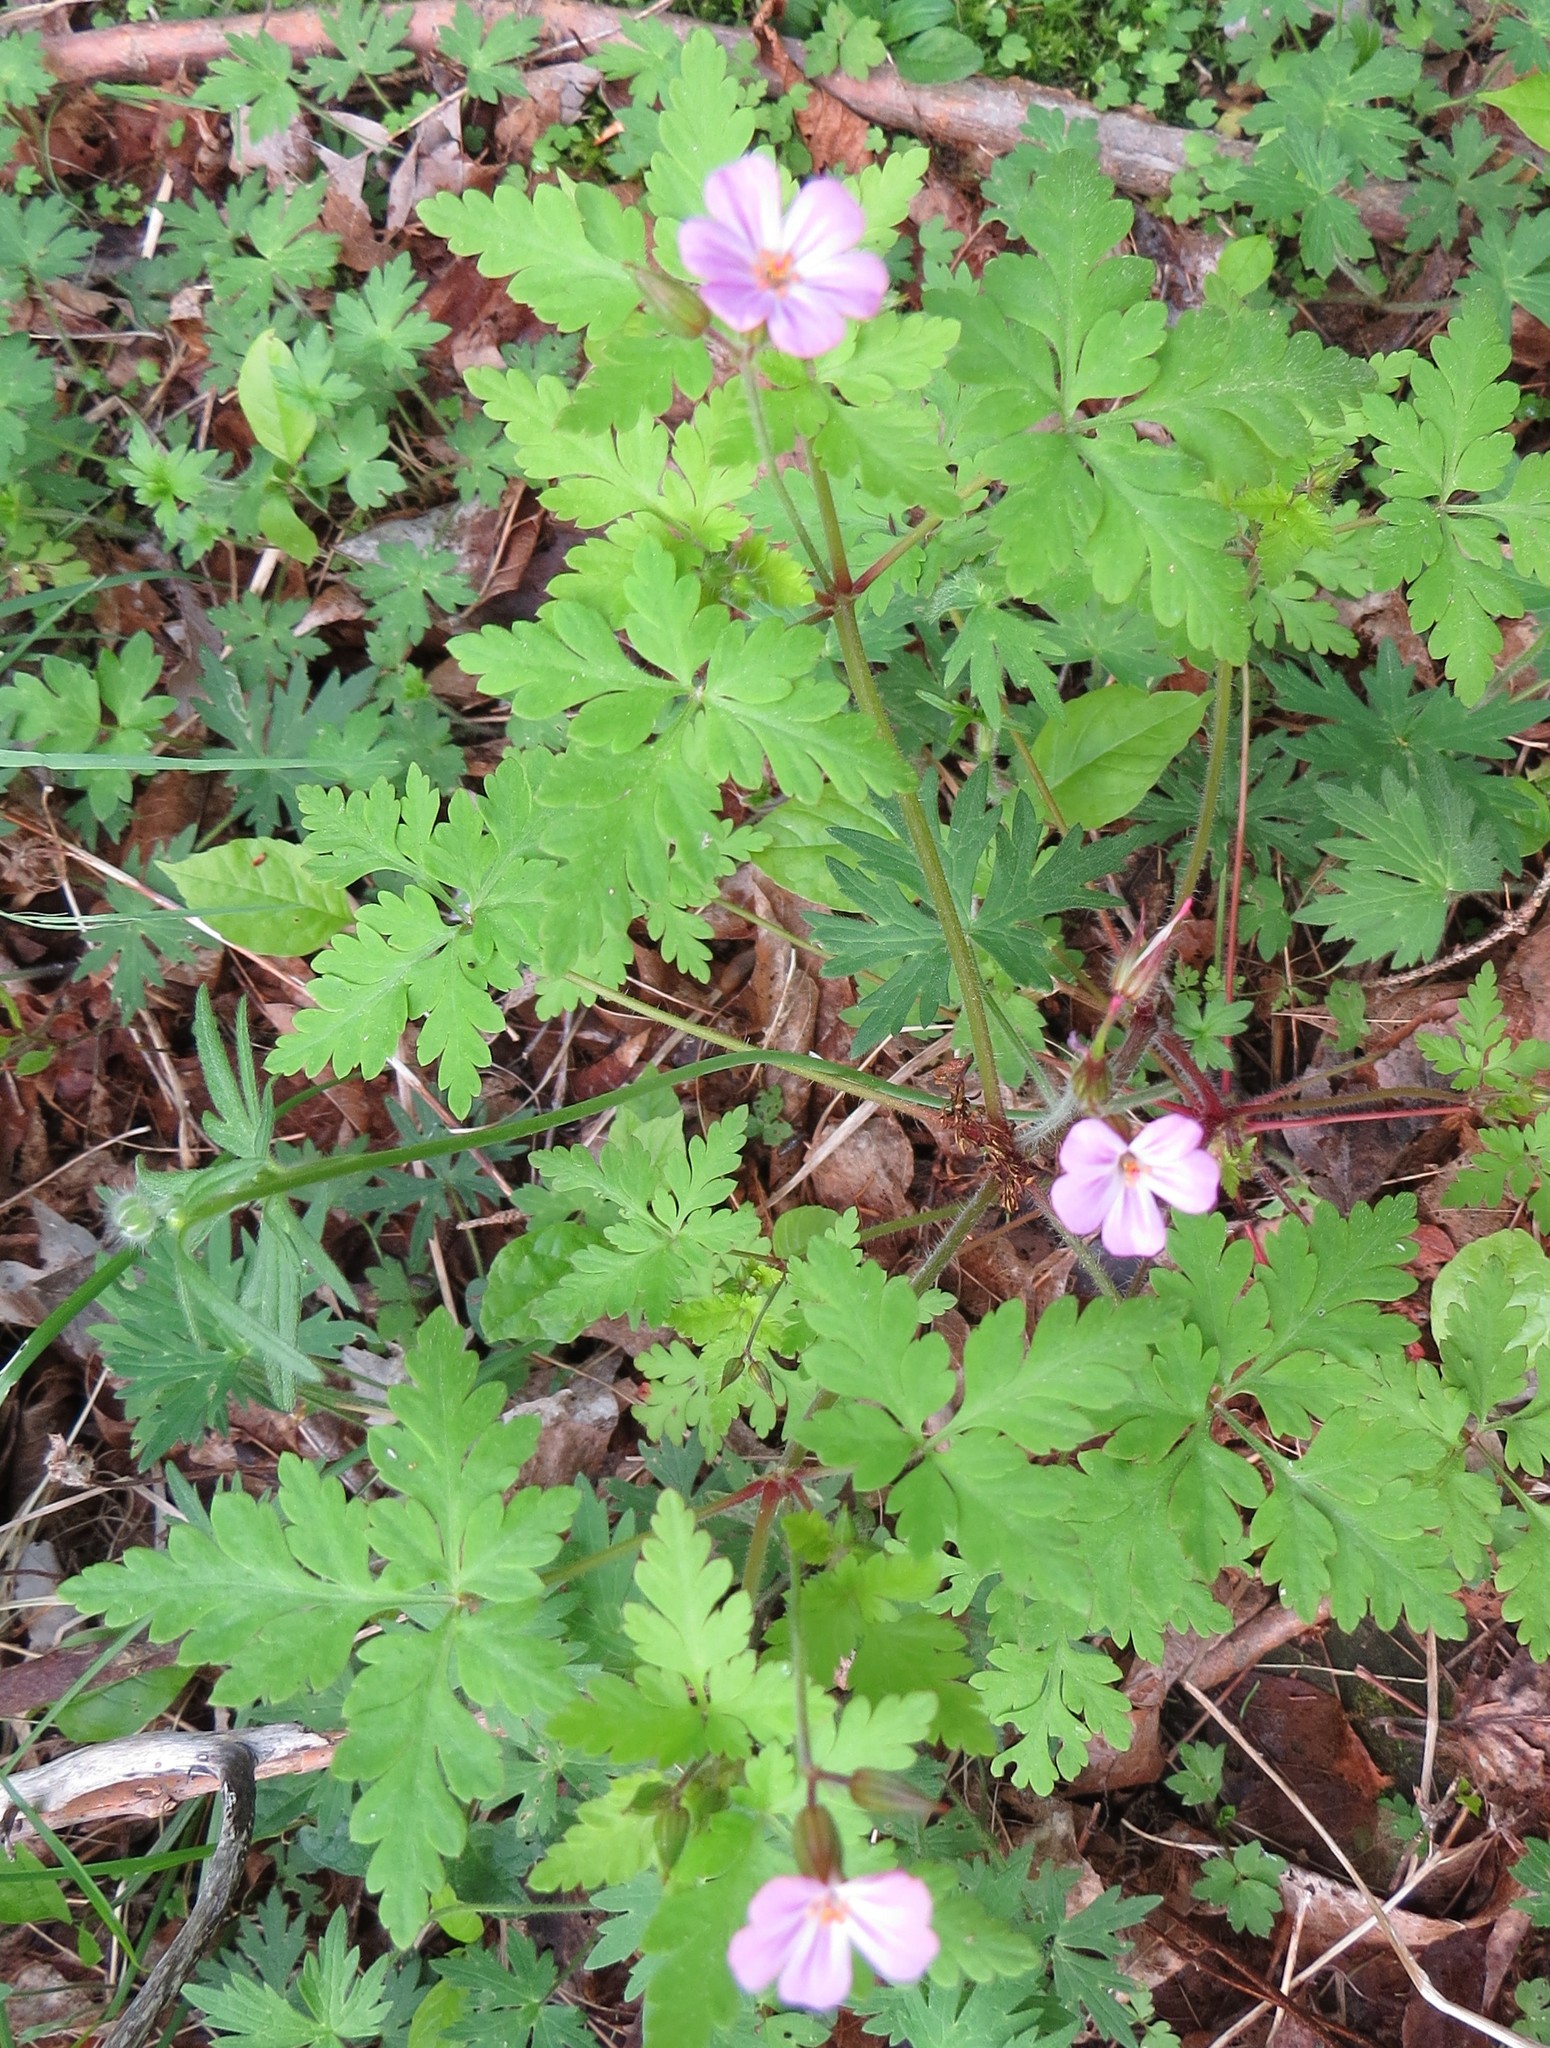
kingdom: Plantae
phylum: Tracheophyta
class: Magnoliopsida
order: Geraniales
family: Geraniaceae
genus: Geranium
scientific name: Geranium robertianum
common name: Herb-robert
